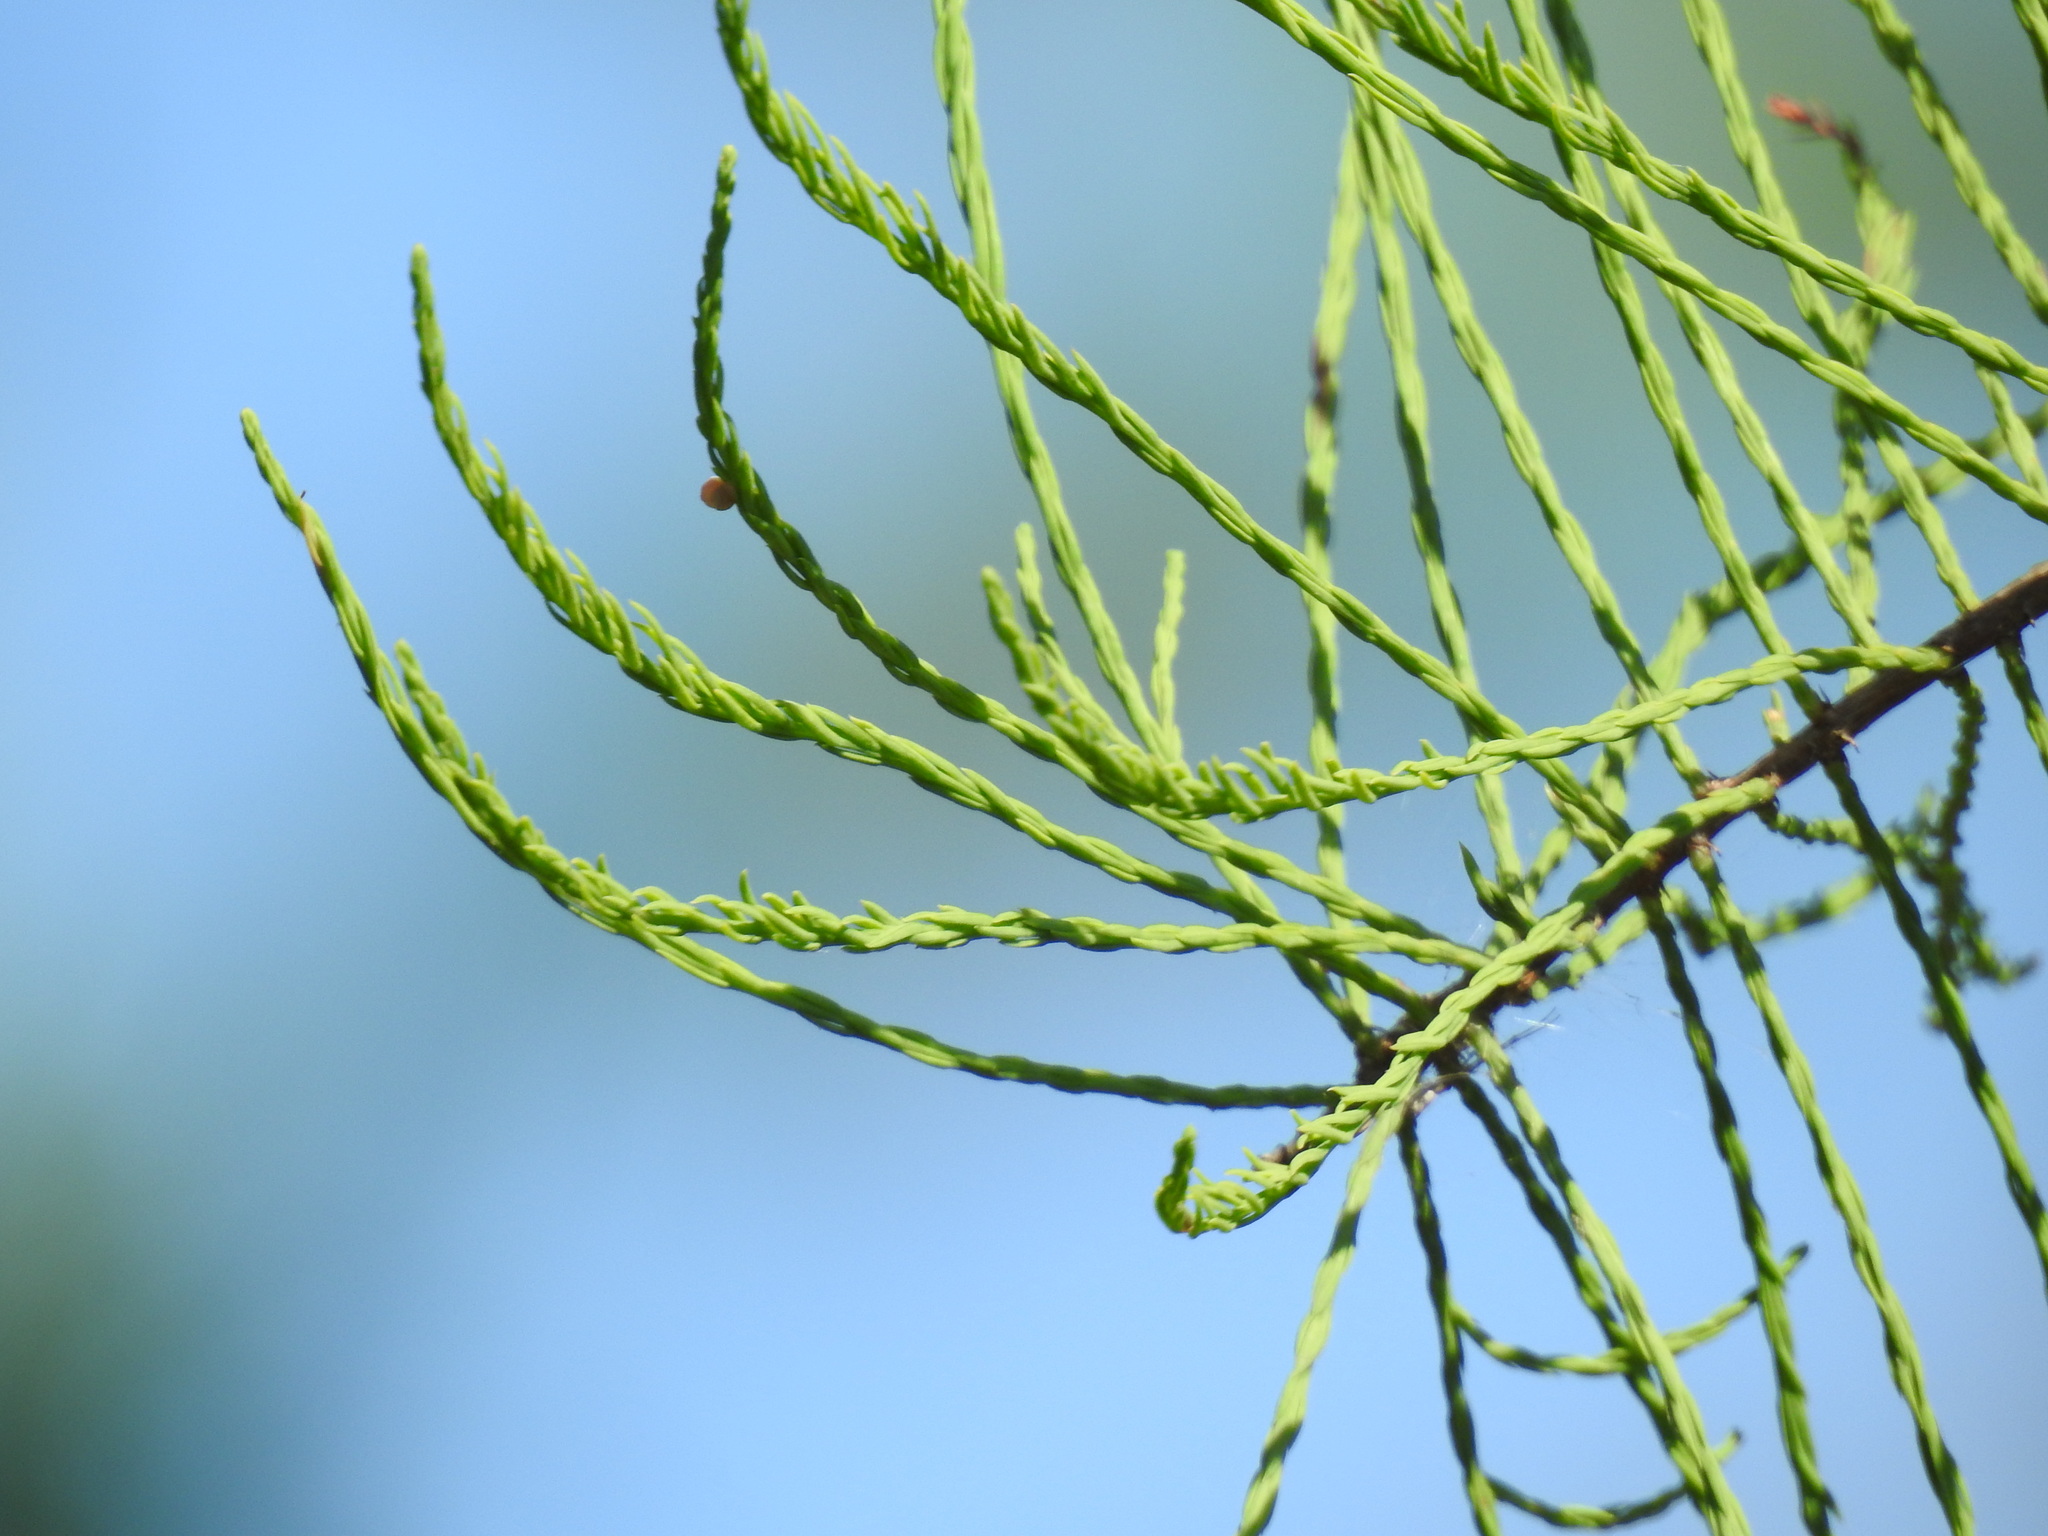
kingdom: Plantae
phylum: Tracheophyta
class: Pinopsida
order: Pinales
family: Cupressaceae
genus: Taxodium
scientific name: Taxodium distichum
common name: Bald cypress
